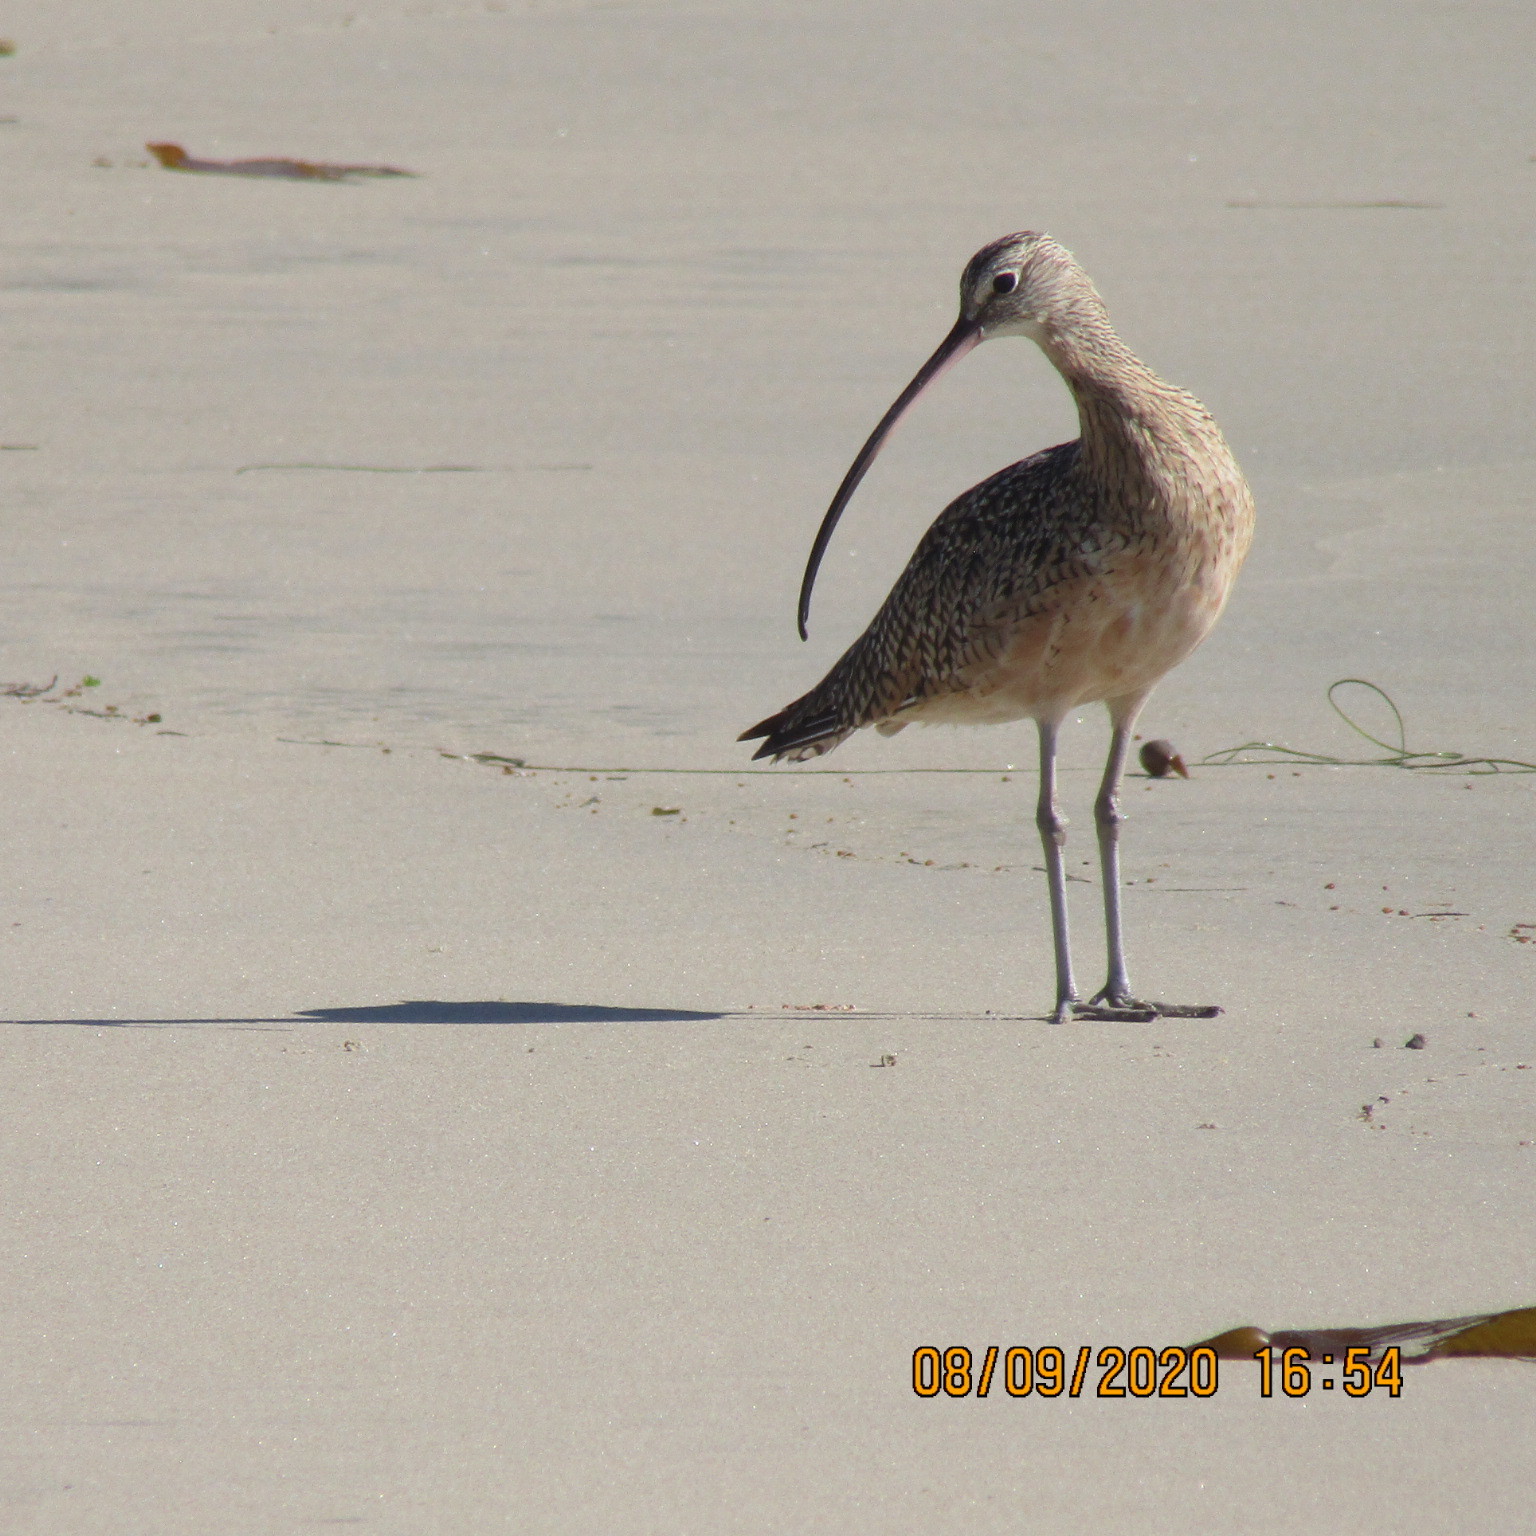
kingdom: Animalia
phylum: Chordata
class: Aves
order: Charadriiformes
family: Scolopacidae
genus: Numenius
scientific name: Numenius americanus
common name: Long-billed curlew
